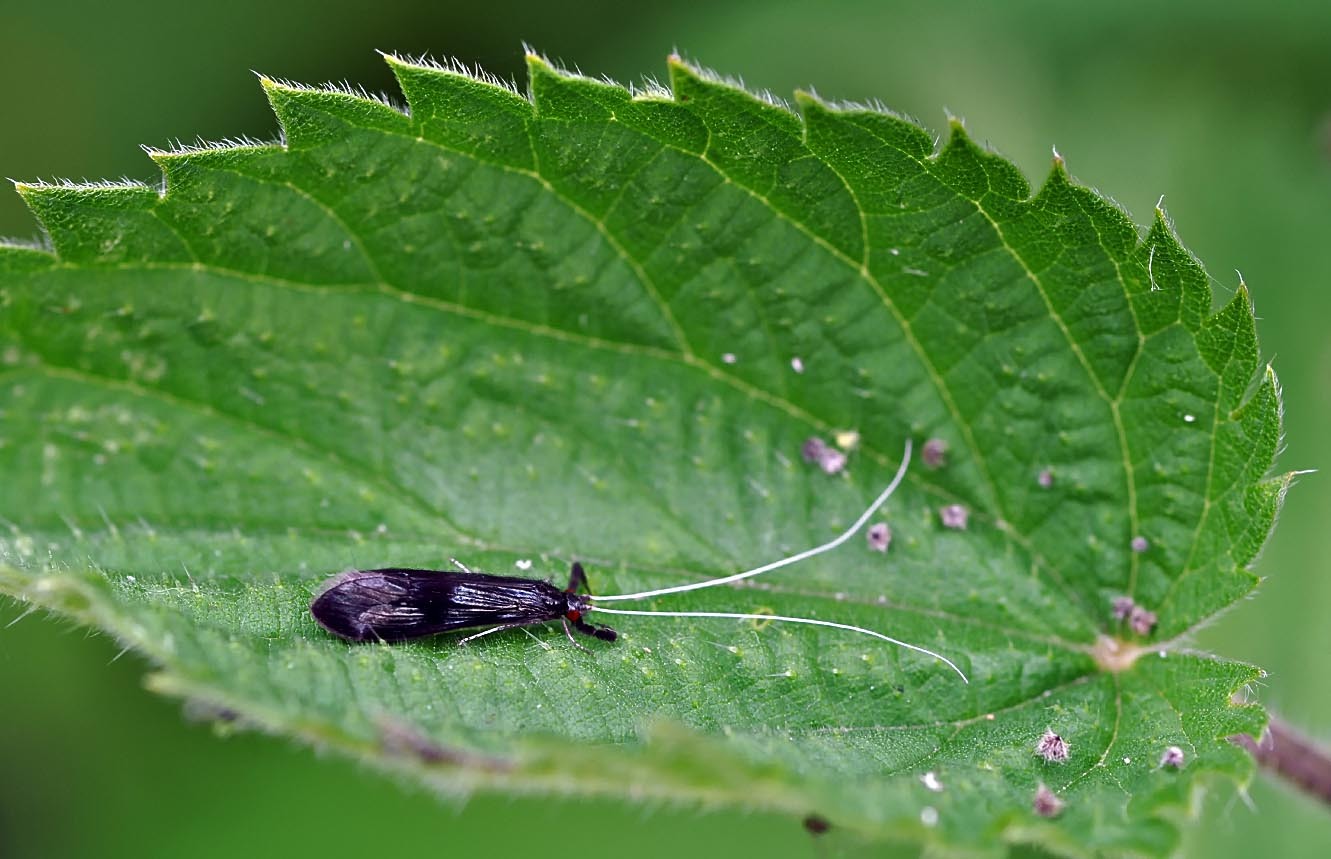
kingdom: Animalia
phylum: Arthropoda
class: Insecta
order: Trichoptera
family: Leptoceridae
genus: Mystacides
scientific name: Mystacides azureus
